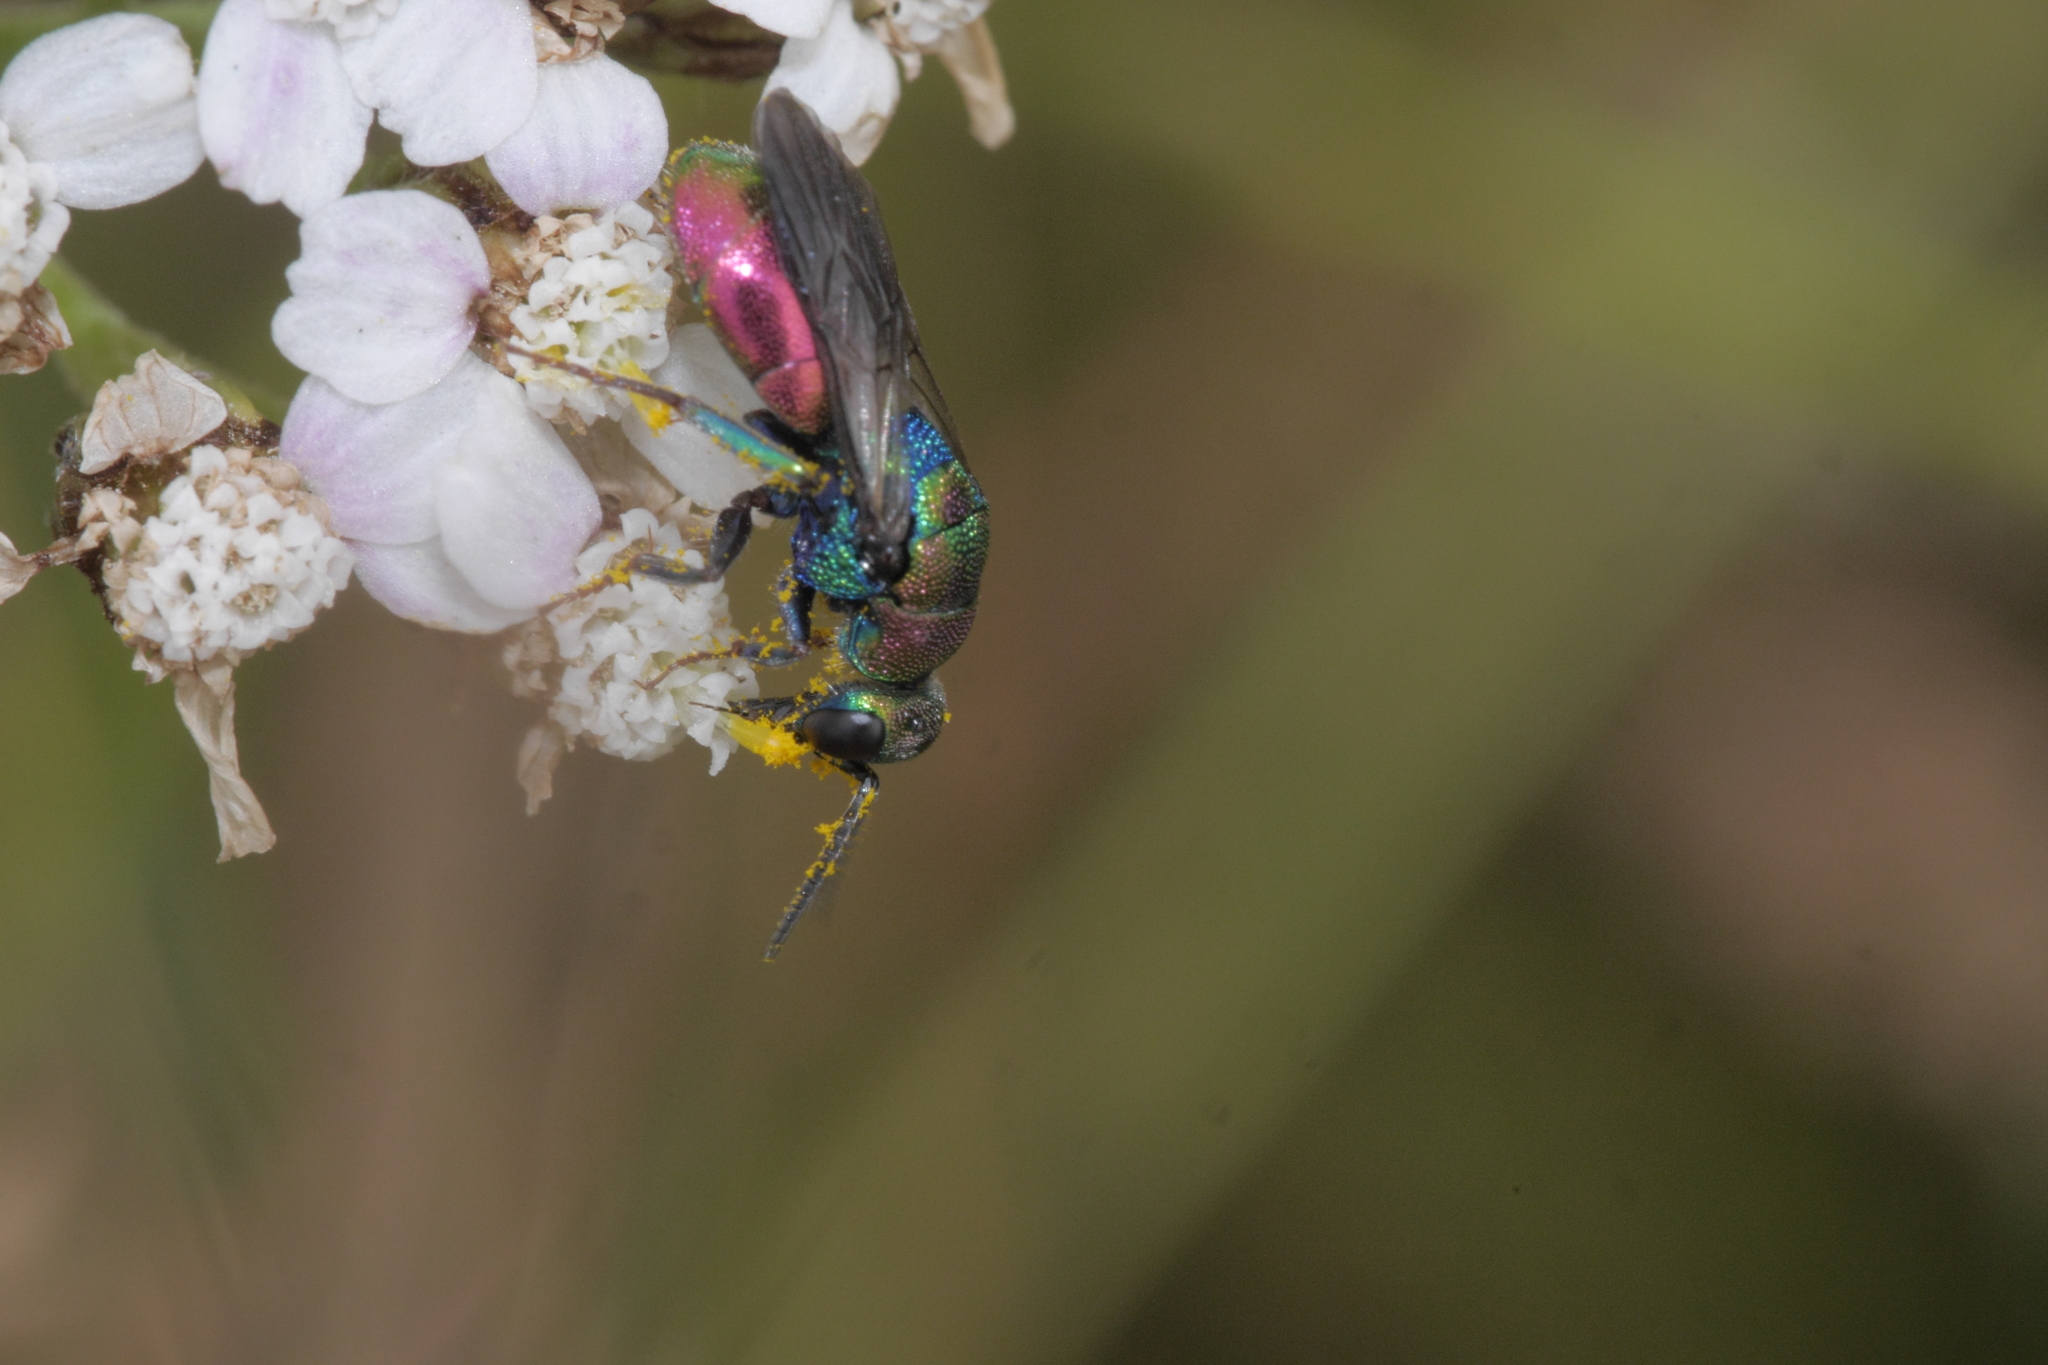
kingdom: Animalia
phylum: Arthropoda
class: Insecta
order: Hymenoptera
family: Chrysididae
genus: Hedychrum
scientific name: Hedychrum rutilans
